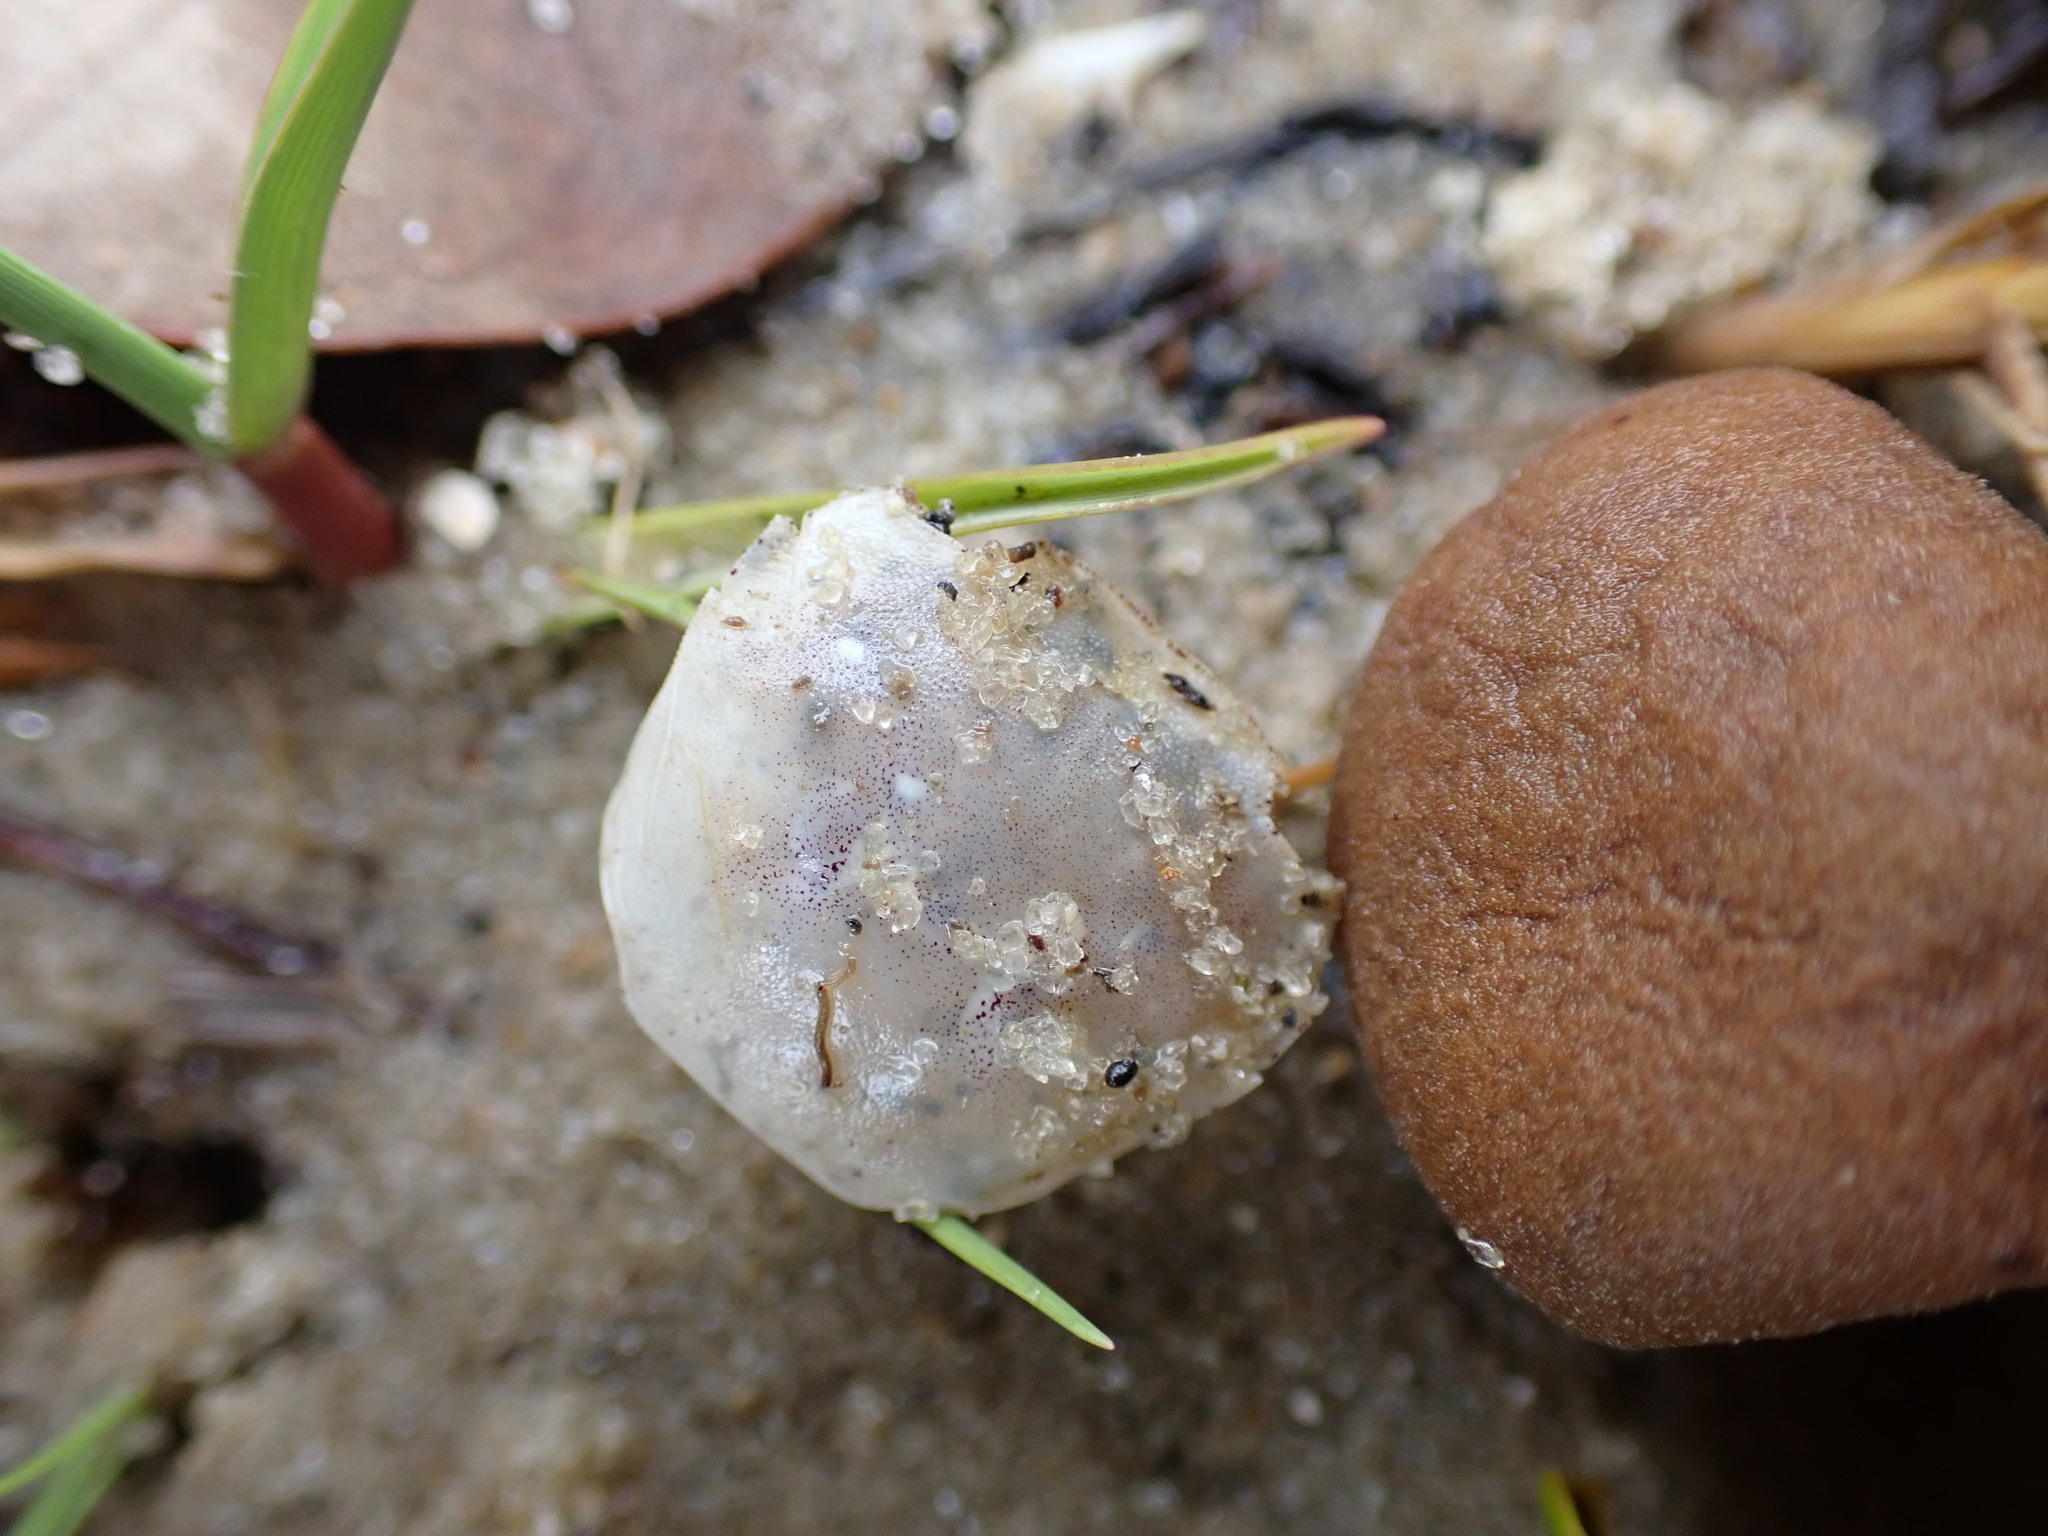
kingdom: Animalia
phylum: Arthropoda
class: Malacostraca
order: Decapoda
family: Varunidae
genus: Hemigrapsus
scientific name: Hemigrapsus crenulatus
